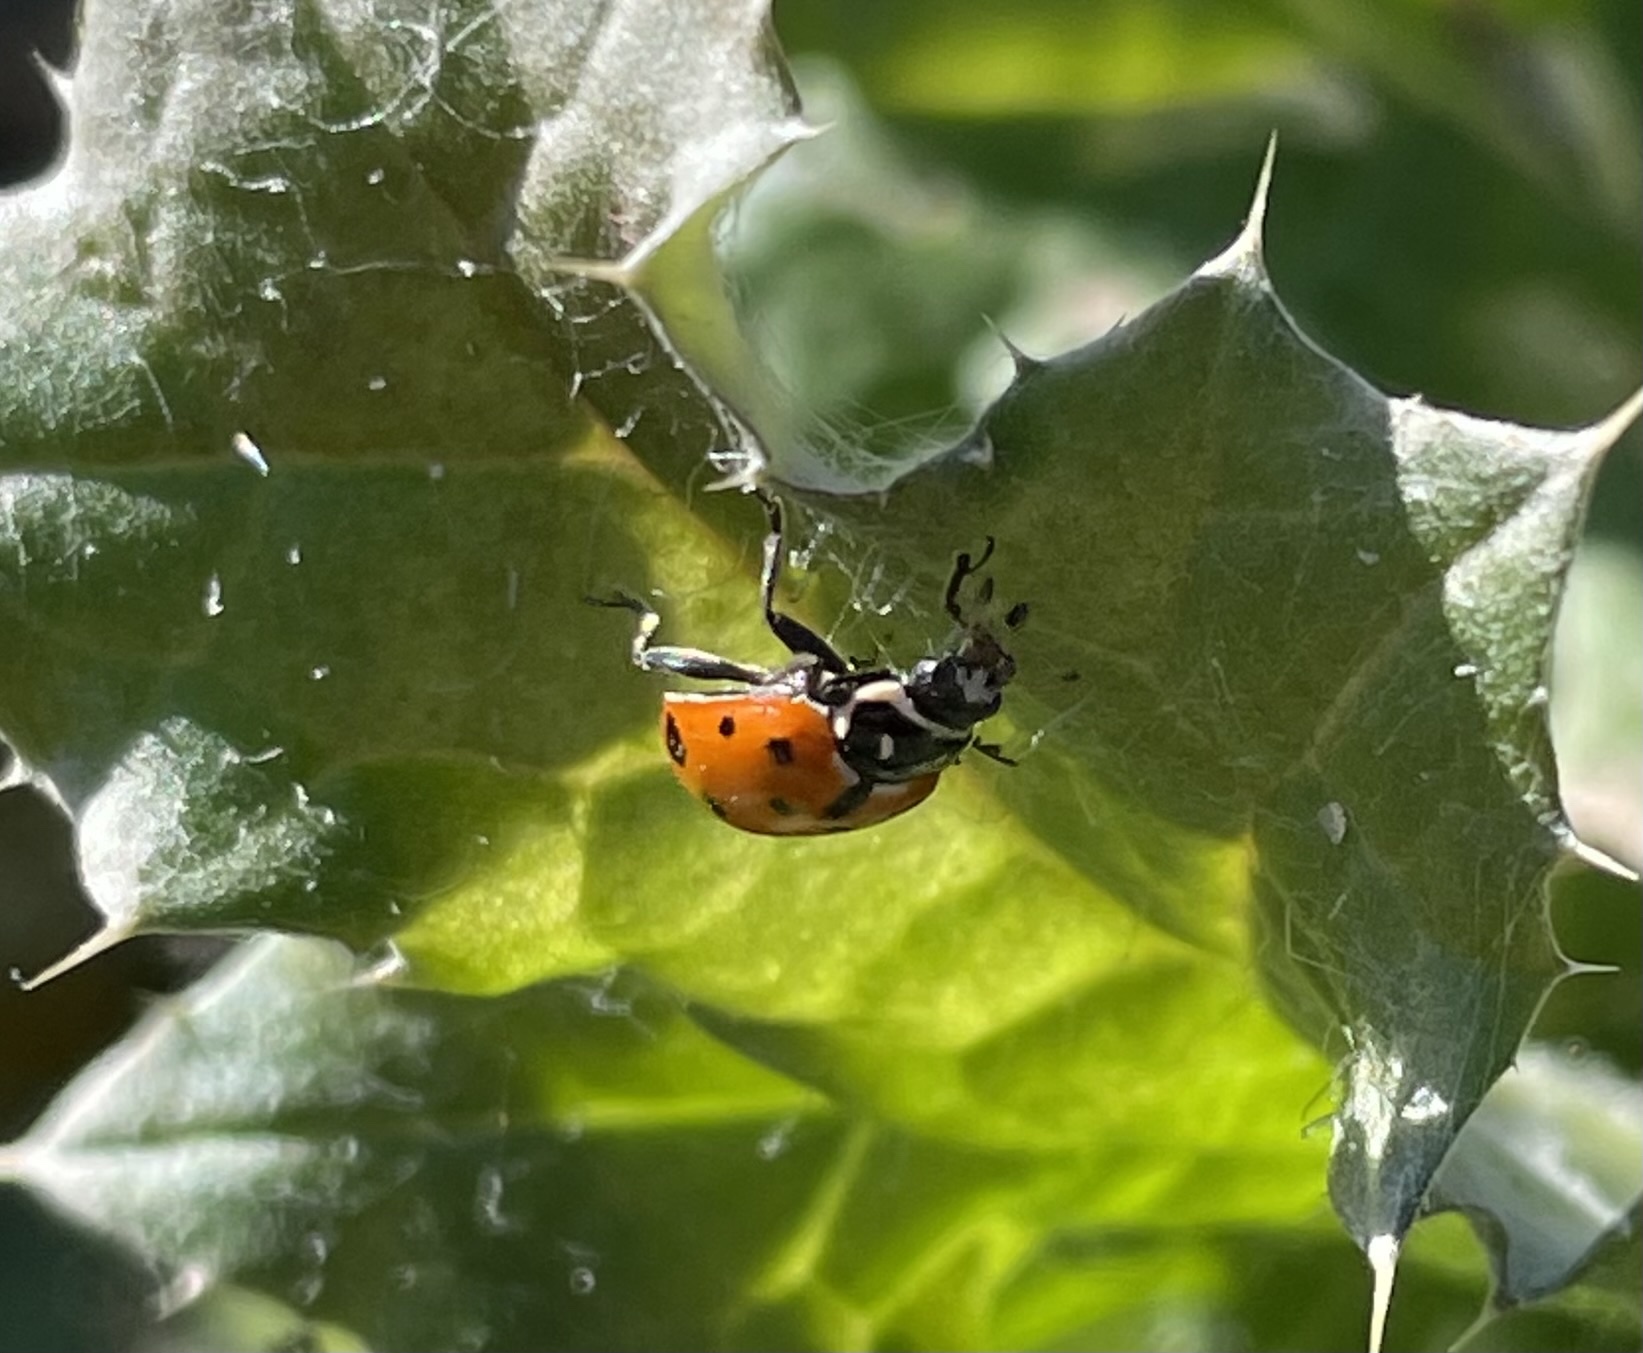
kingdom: Animalia
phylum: Arthropoda
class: Insecta
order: Coleoptera
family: Coccinellidae
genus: Hippodamia
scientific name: Hippodamia convergens
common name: Convergent lady beetle
